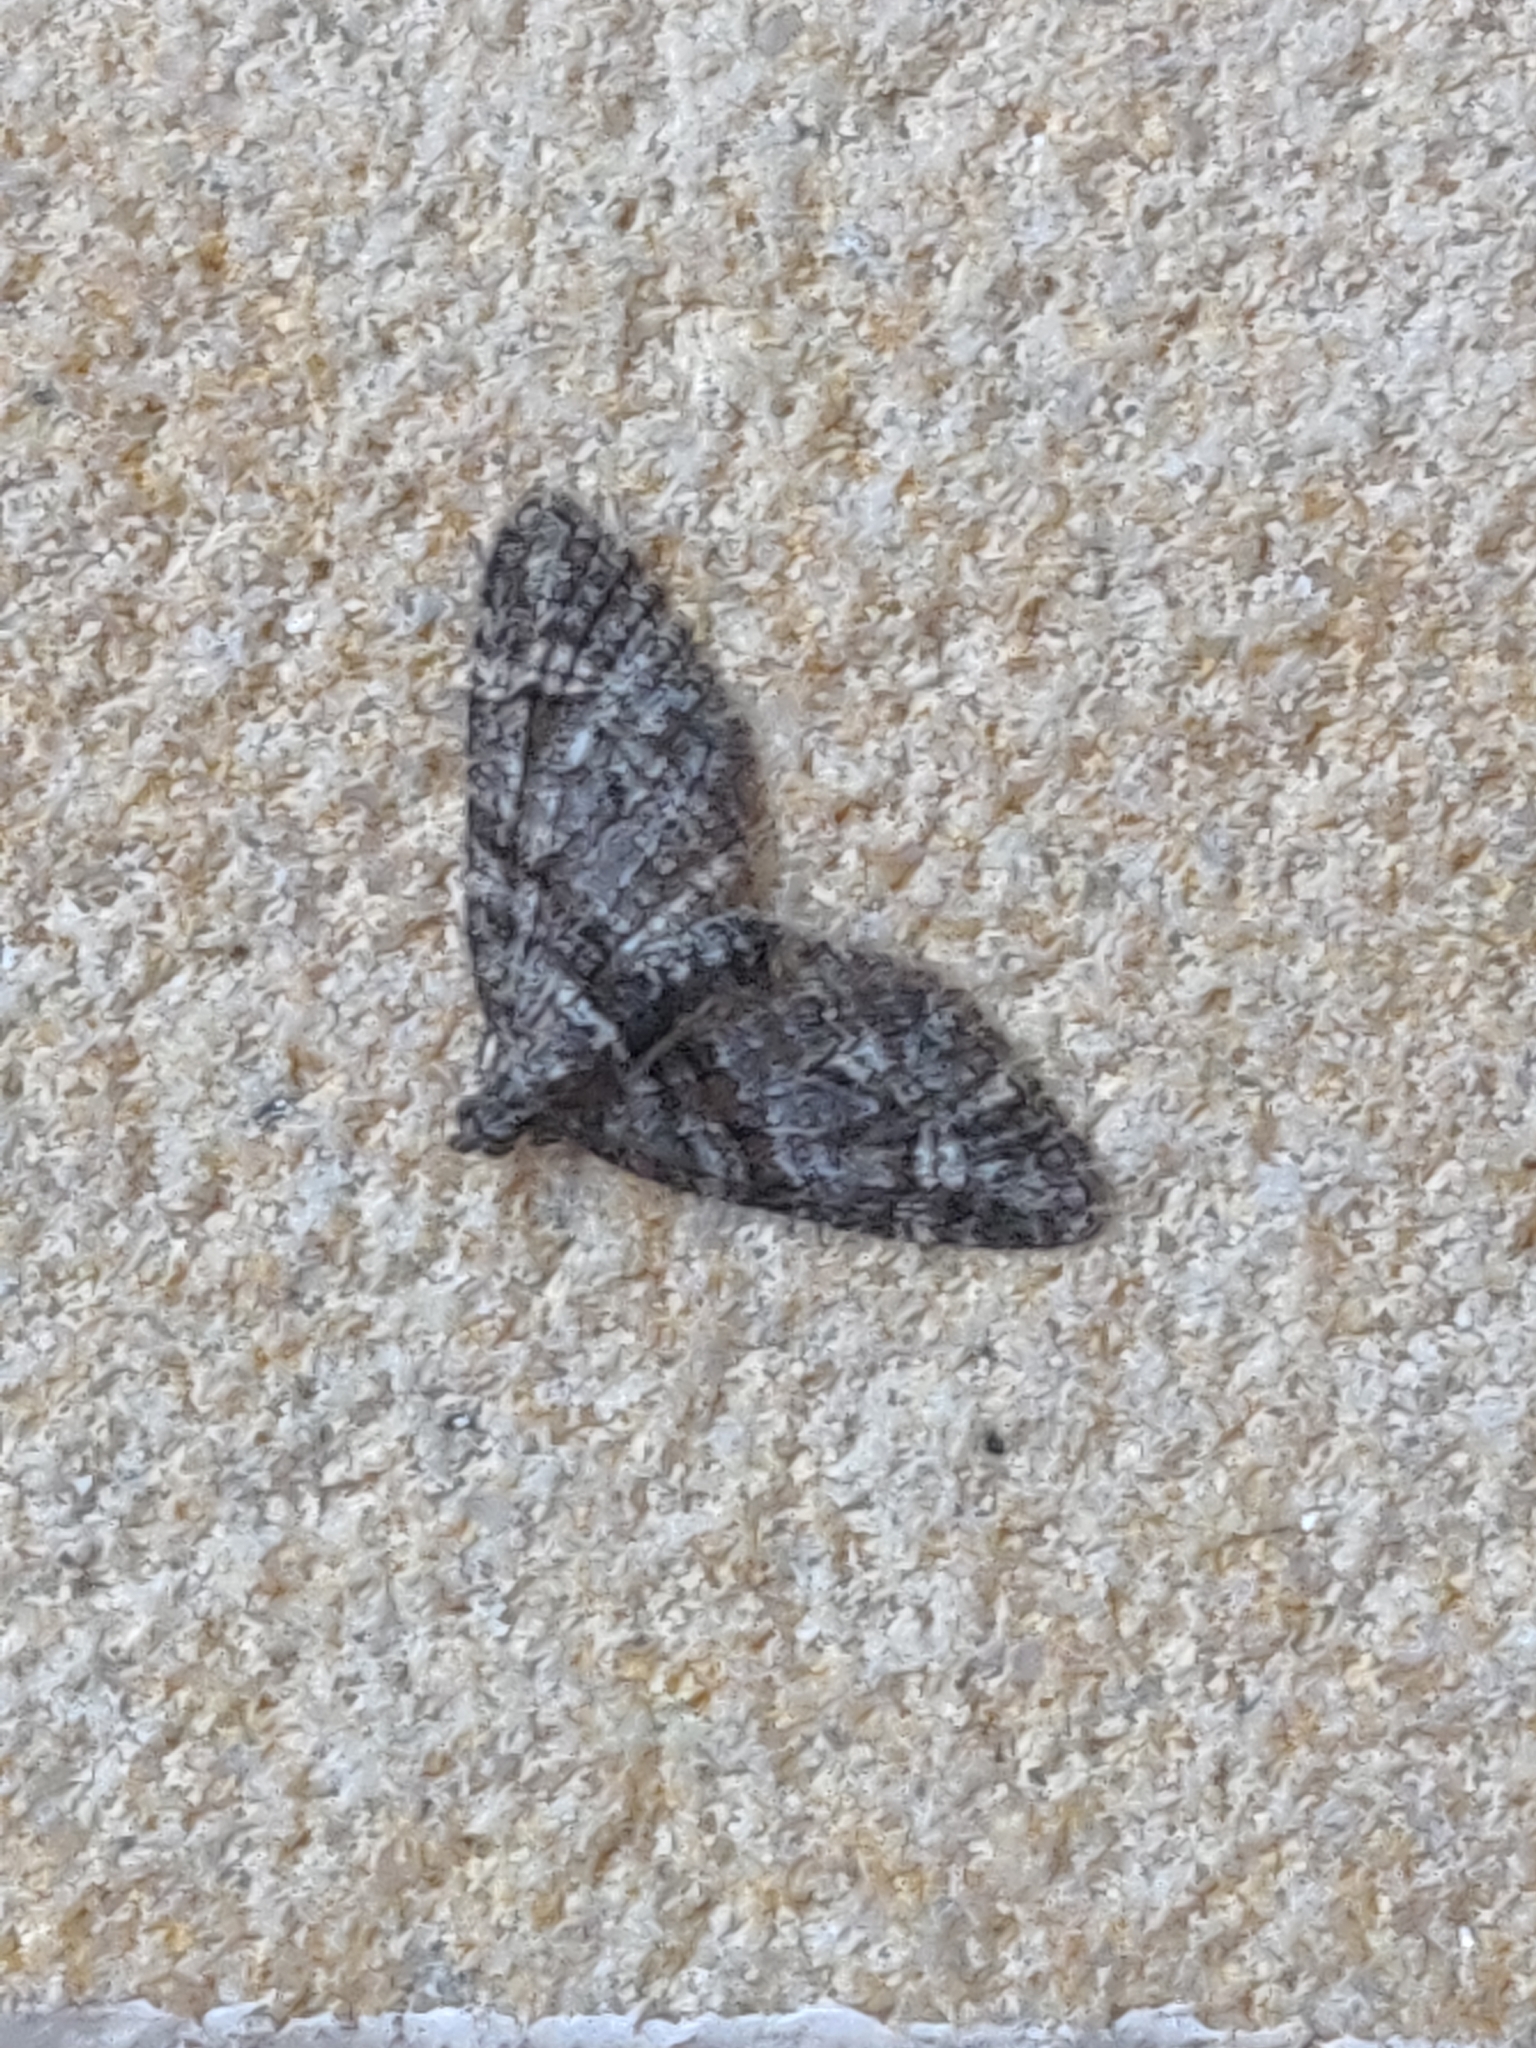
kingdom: Animalia
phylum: Arthropoda
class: Insecta
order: Lepidoptera
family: Geometridae
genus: Phrissogonus
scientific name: Phrissogonus laticostata
